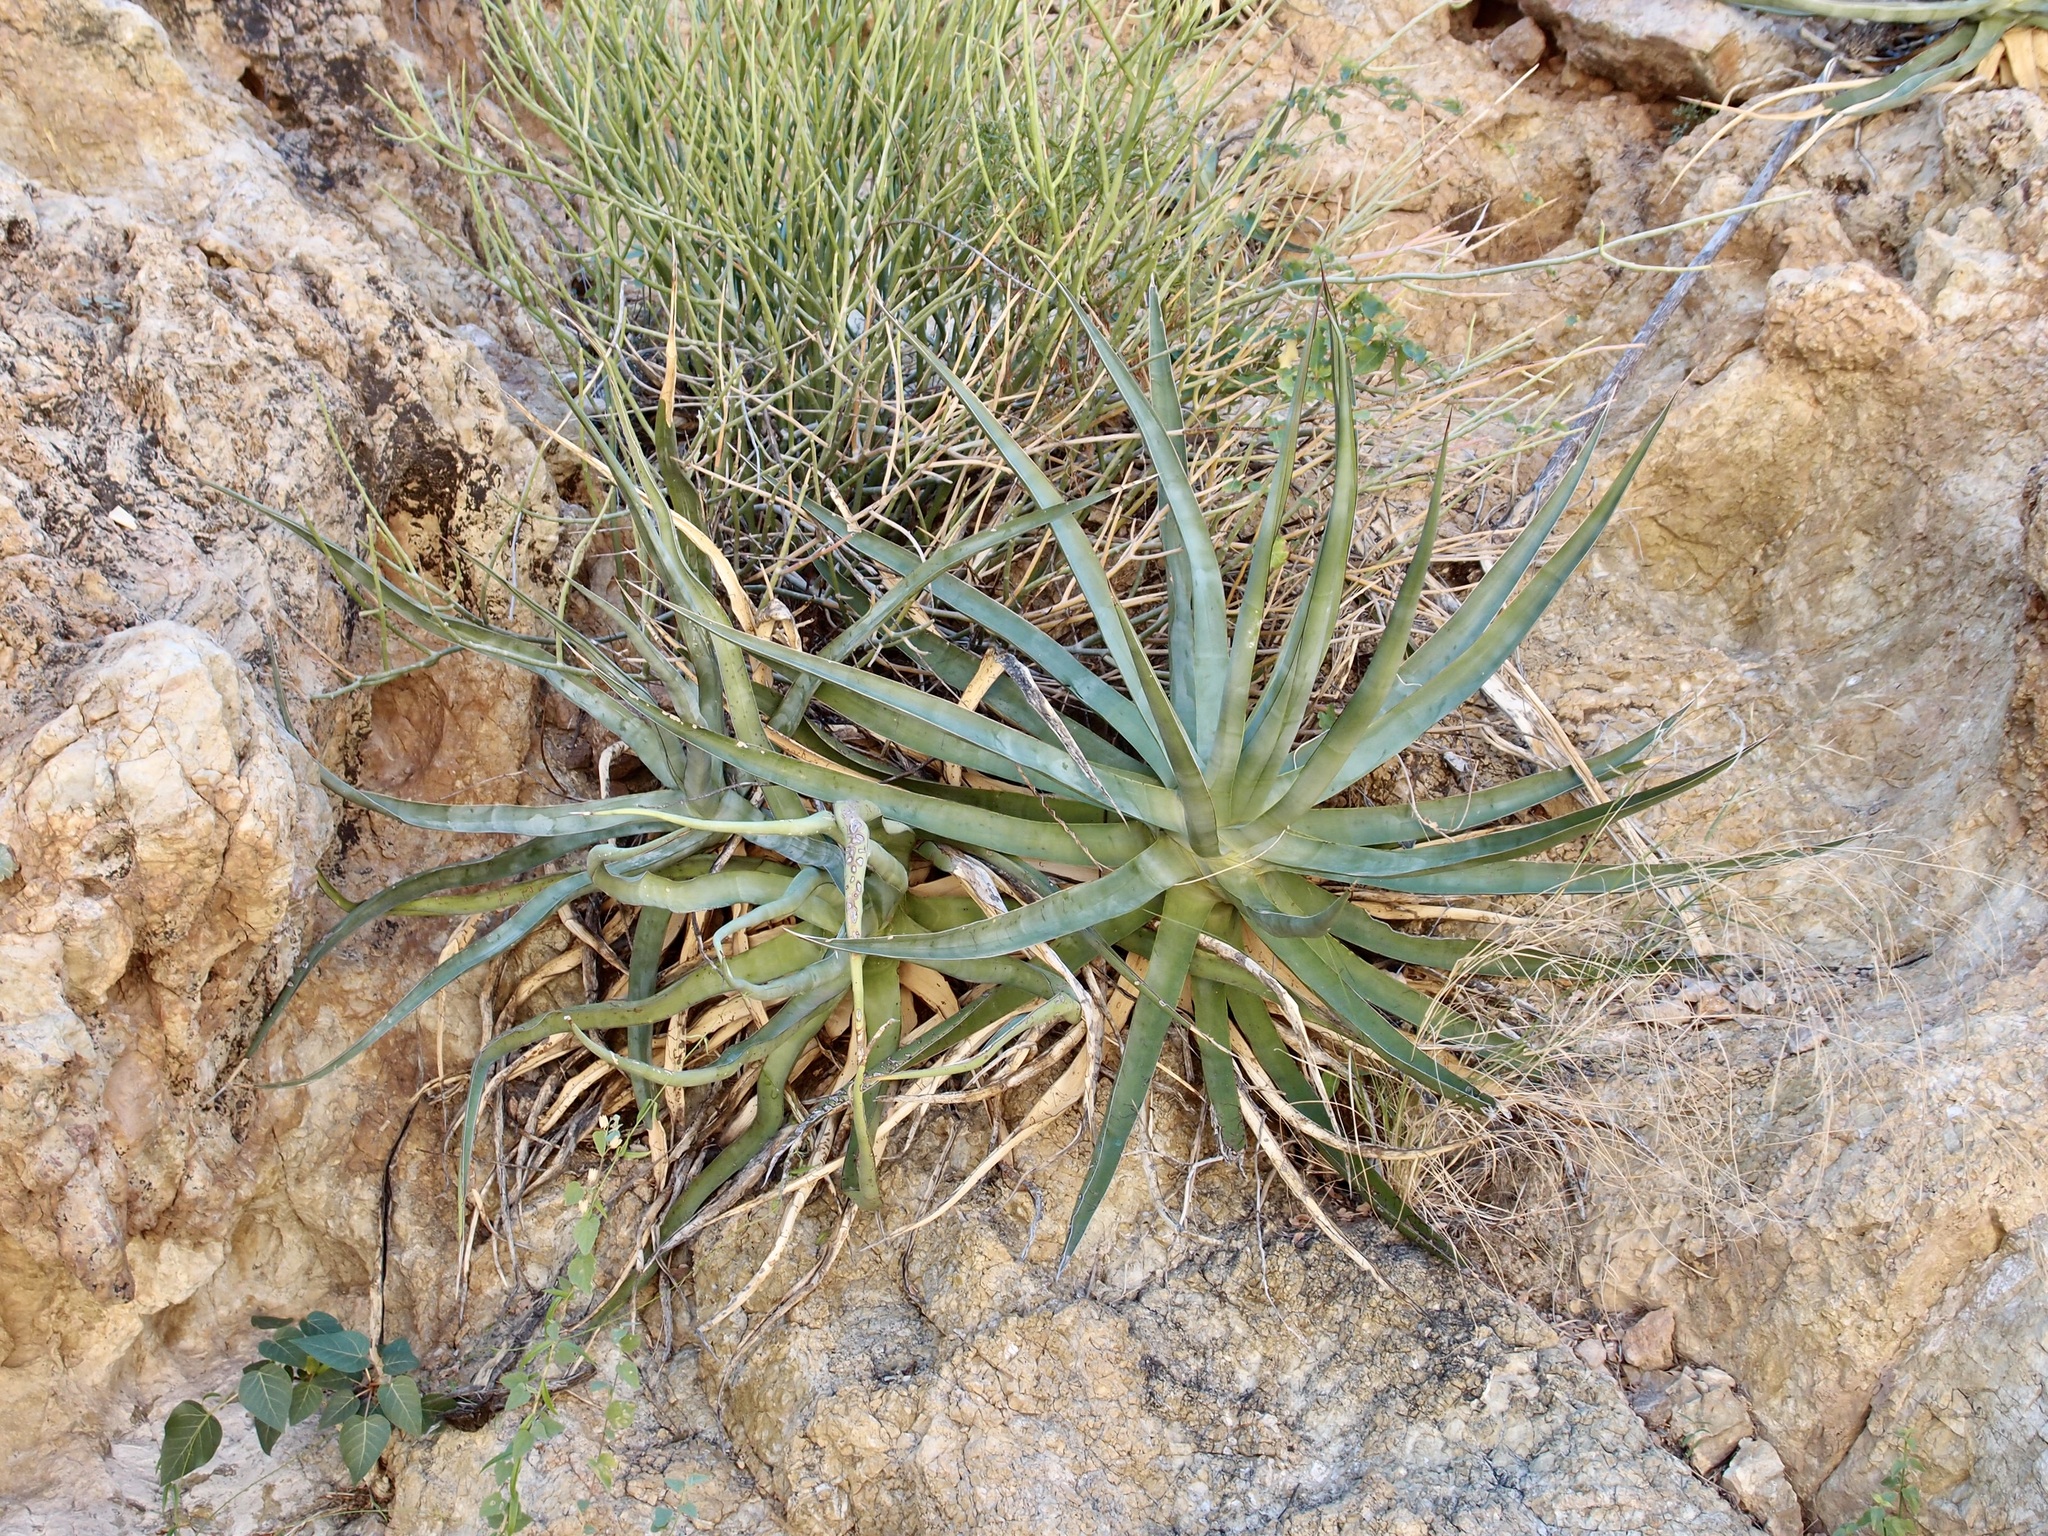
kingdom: Plantae
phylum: Tracheophyta
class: Liliopsida
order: Asparagales
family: Asparagaceae
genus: Agave
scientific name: Agave chrysoglossa
